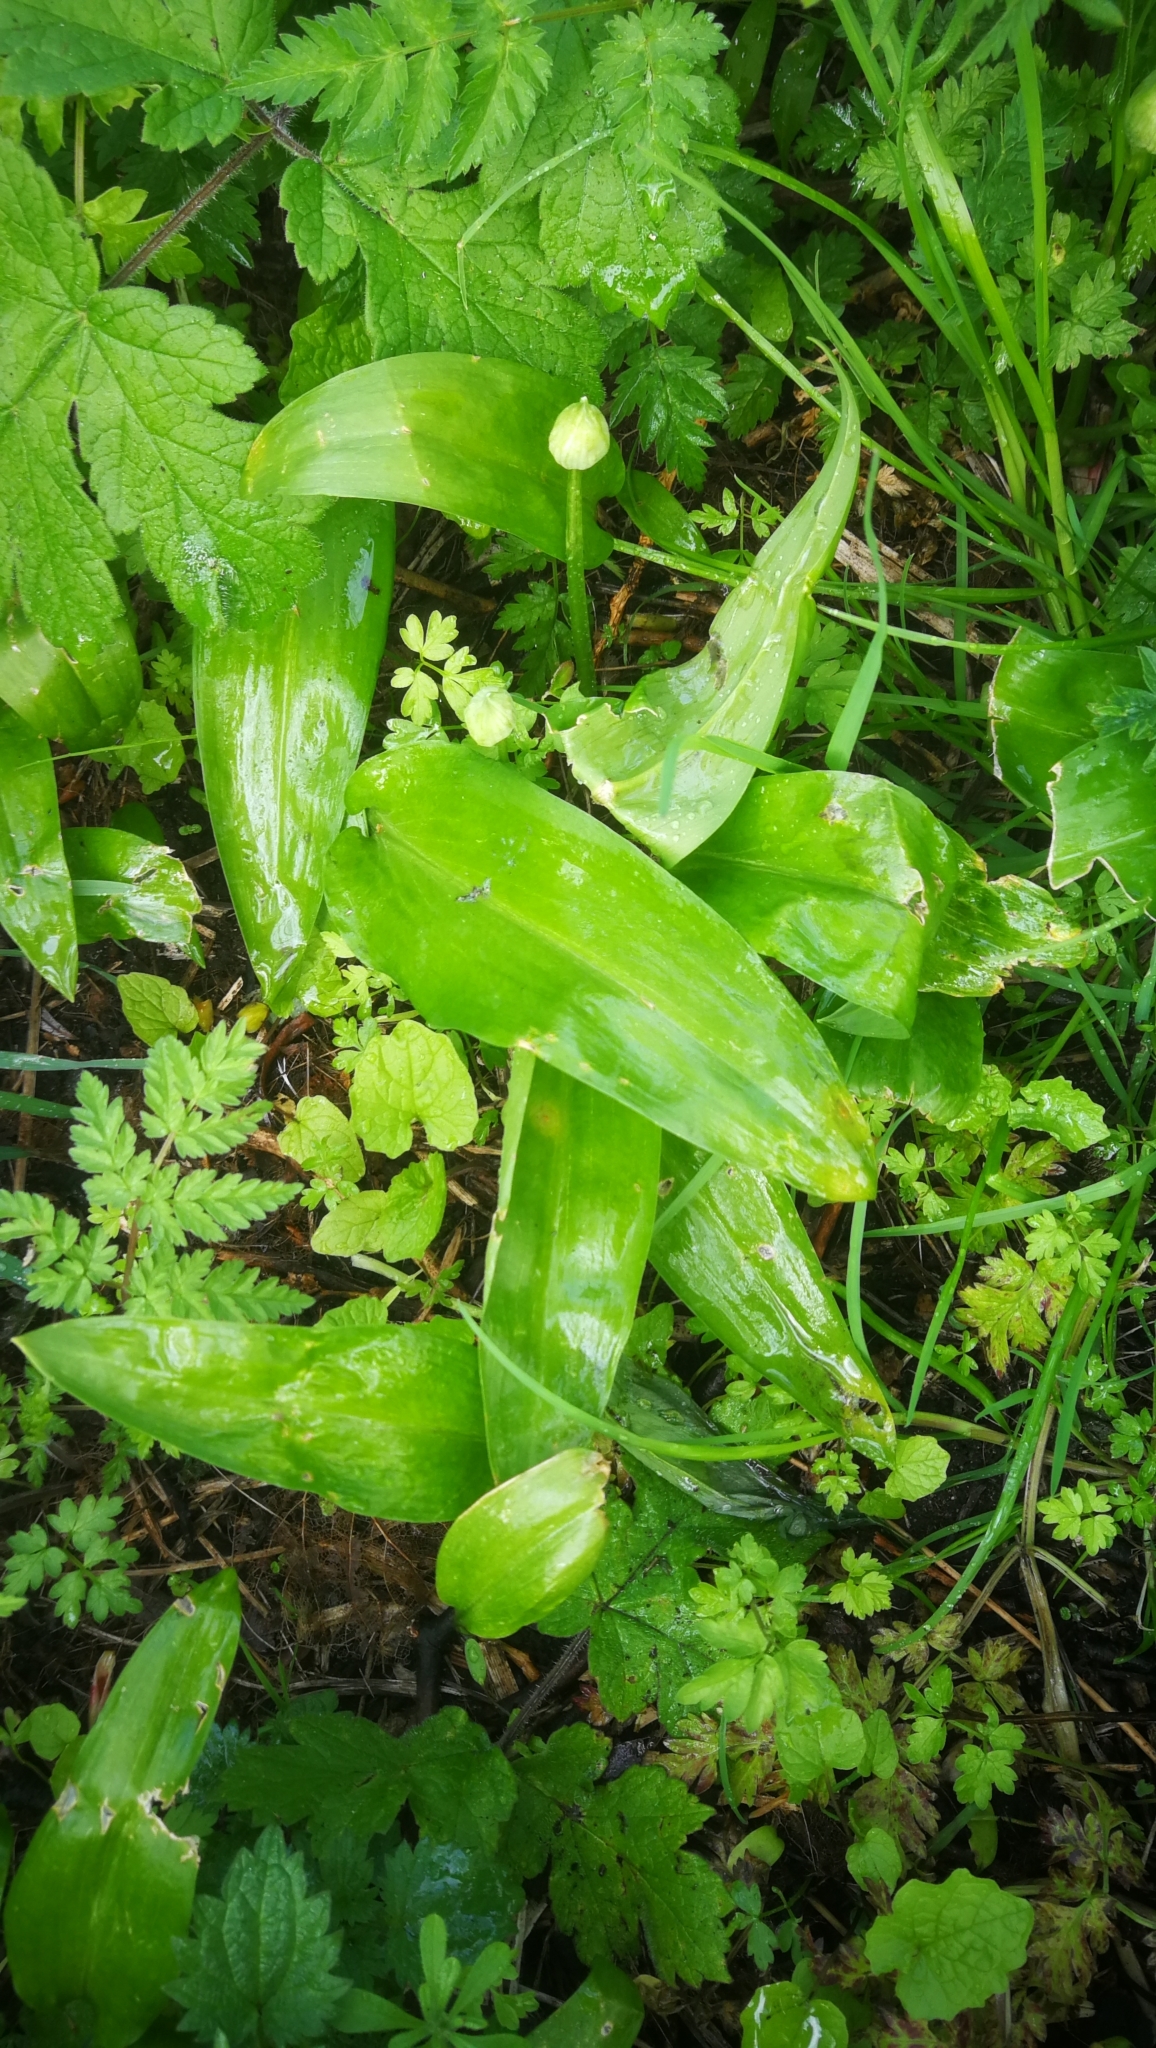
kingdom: Plantae
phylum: Tracheophyta
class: Liliopsida
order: Asparagales
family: Amaryllidaceae
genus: Allium
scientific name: Allium ursinum
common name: Ramsons
